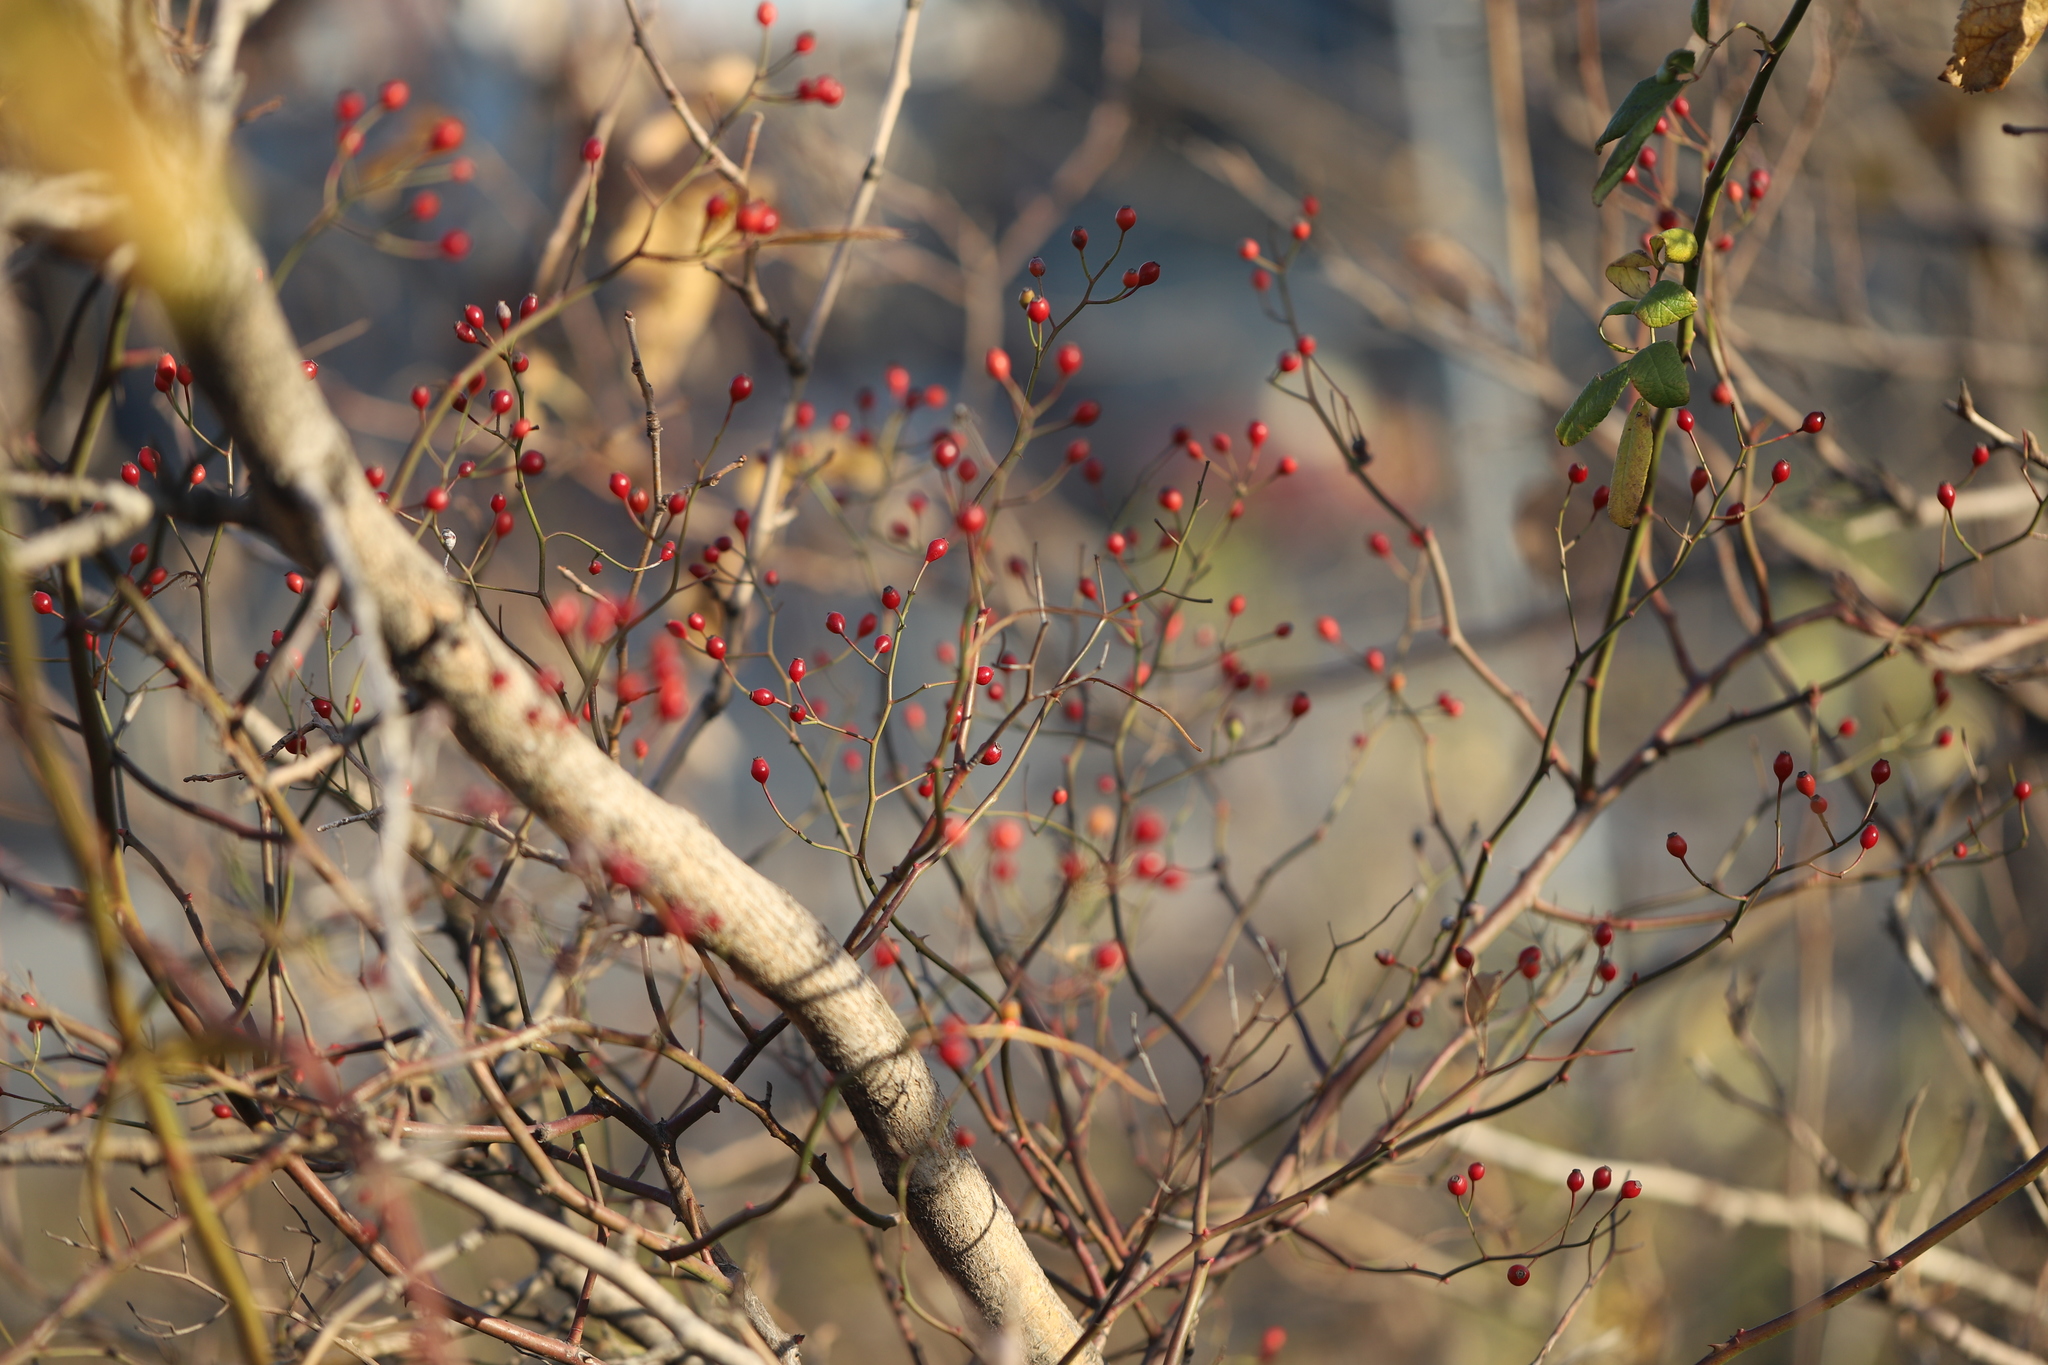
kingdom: Plantae
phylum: Tracheophyta
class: Magnoliopsida
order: Rosales
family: Rosaceae
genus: Rosa
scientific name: Rosa multiflora
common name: Multiflora rose
